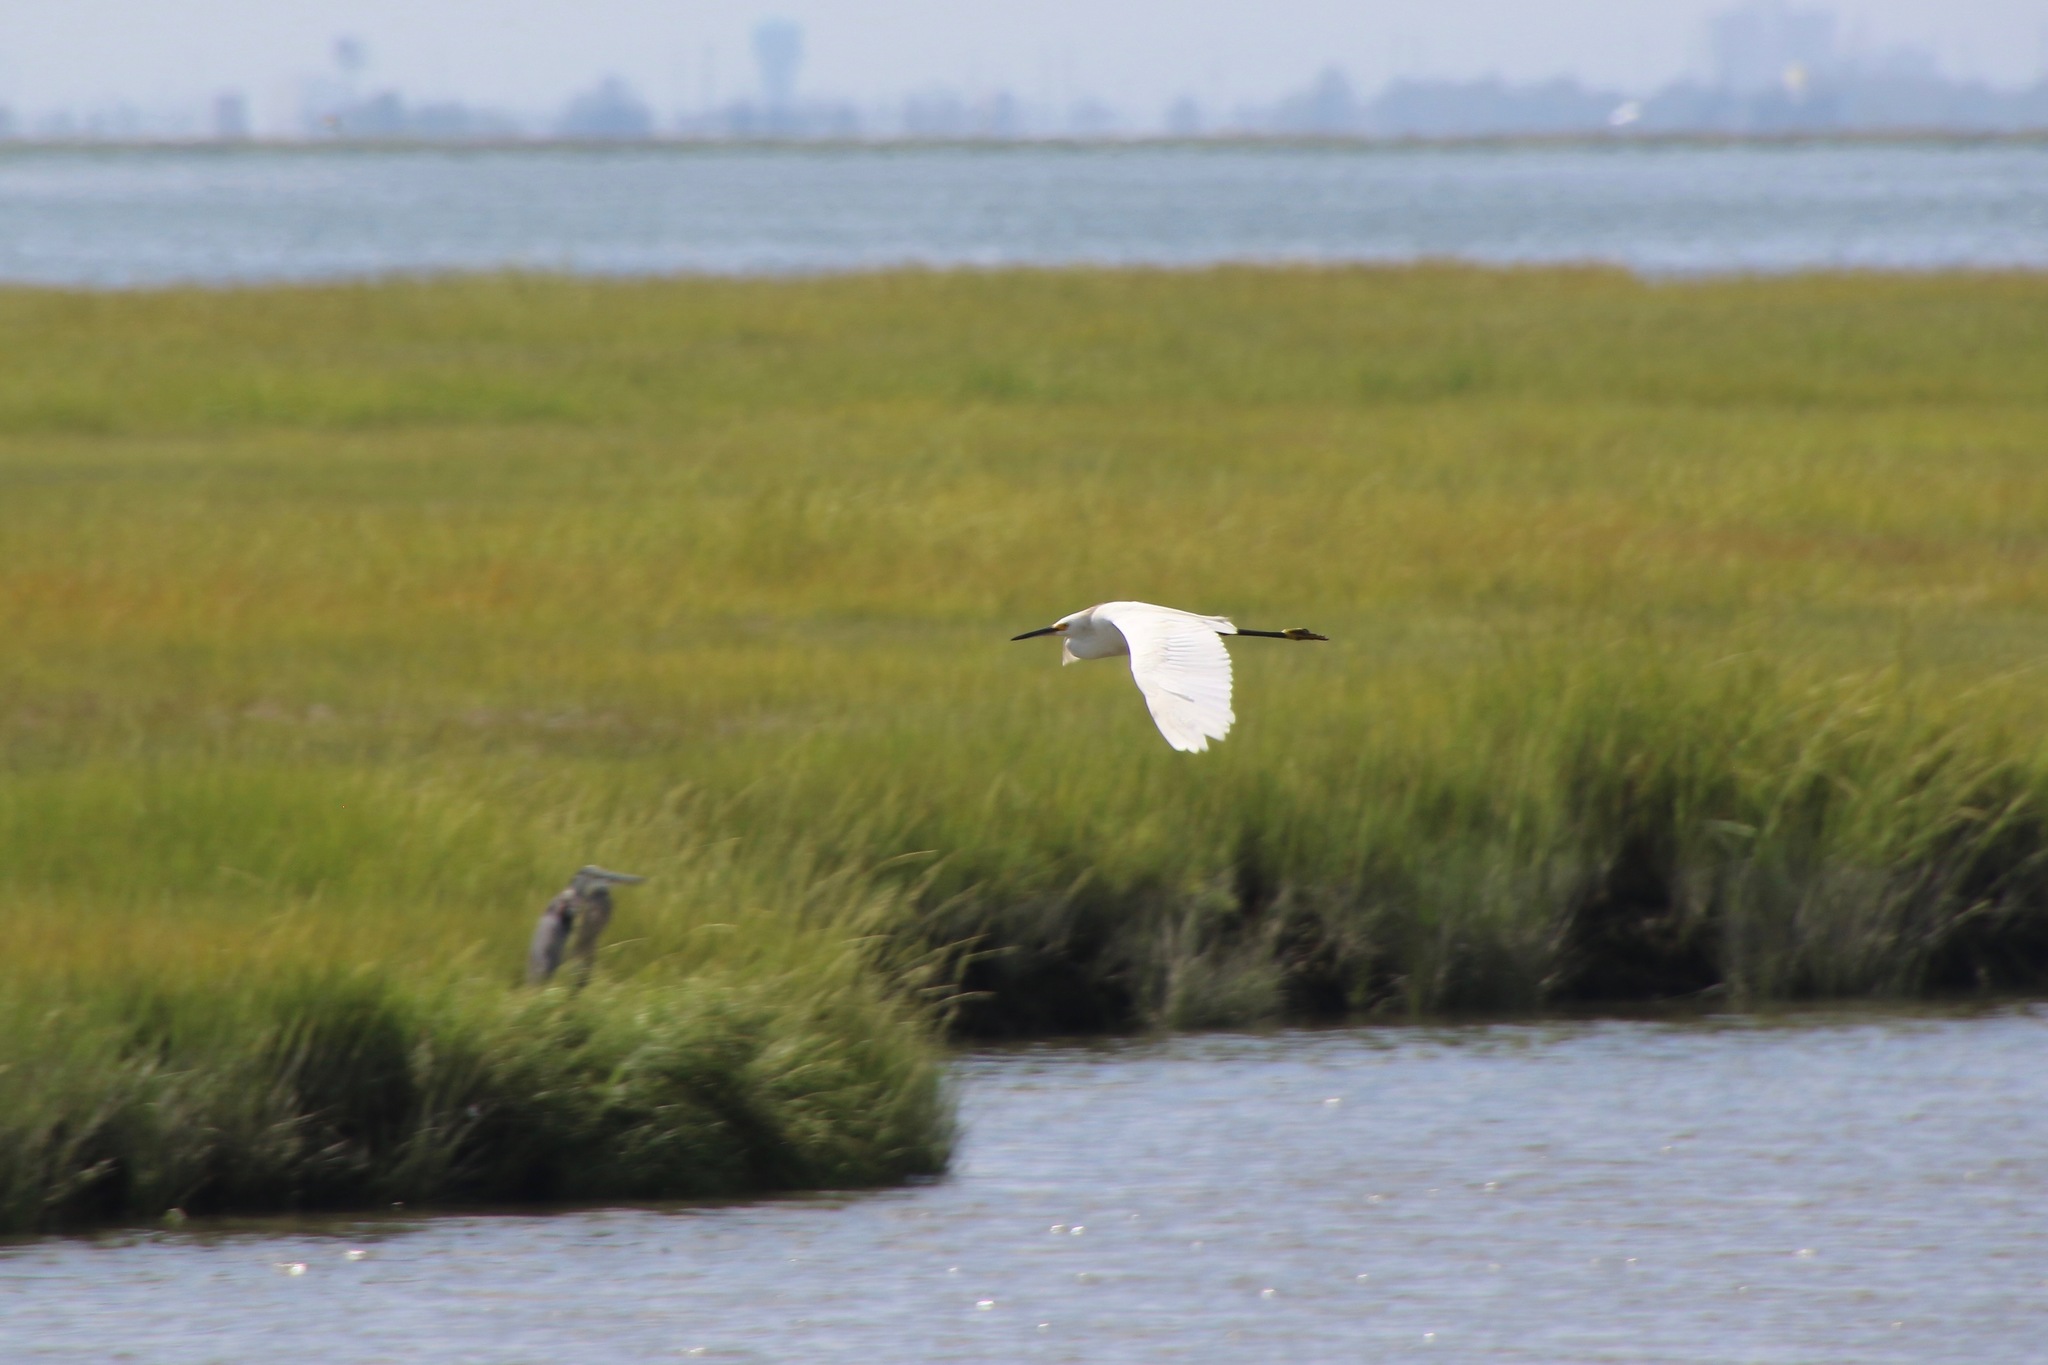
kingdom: Animalia
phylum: Chordata
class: Aves
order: Pelecaniformes
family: Ardeidae
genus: Egretta
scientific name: Egretta thula
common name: Snowy egret
